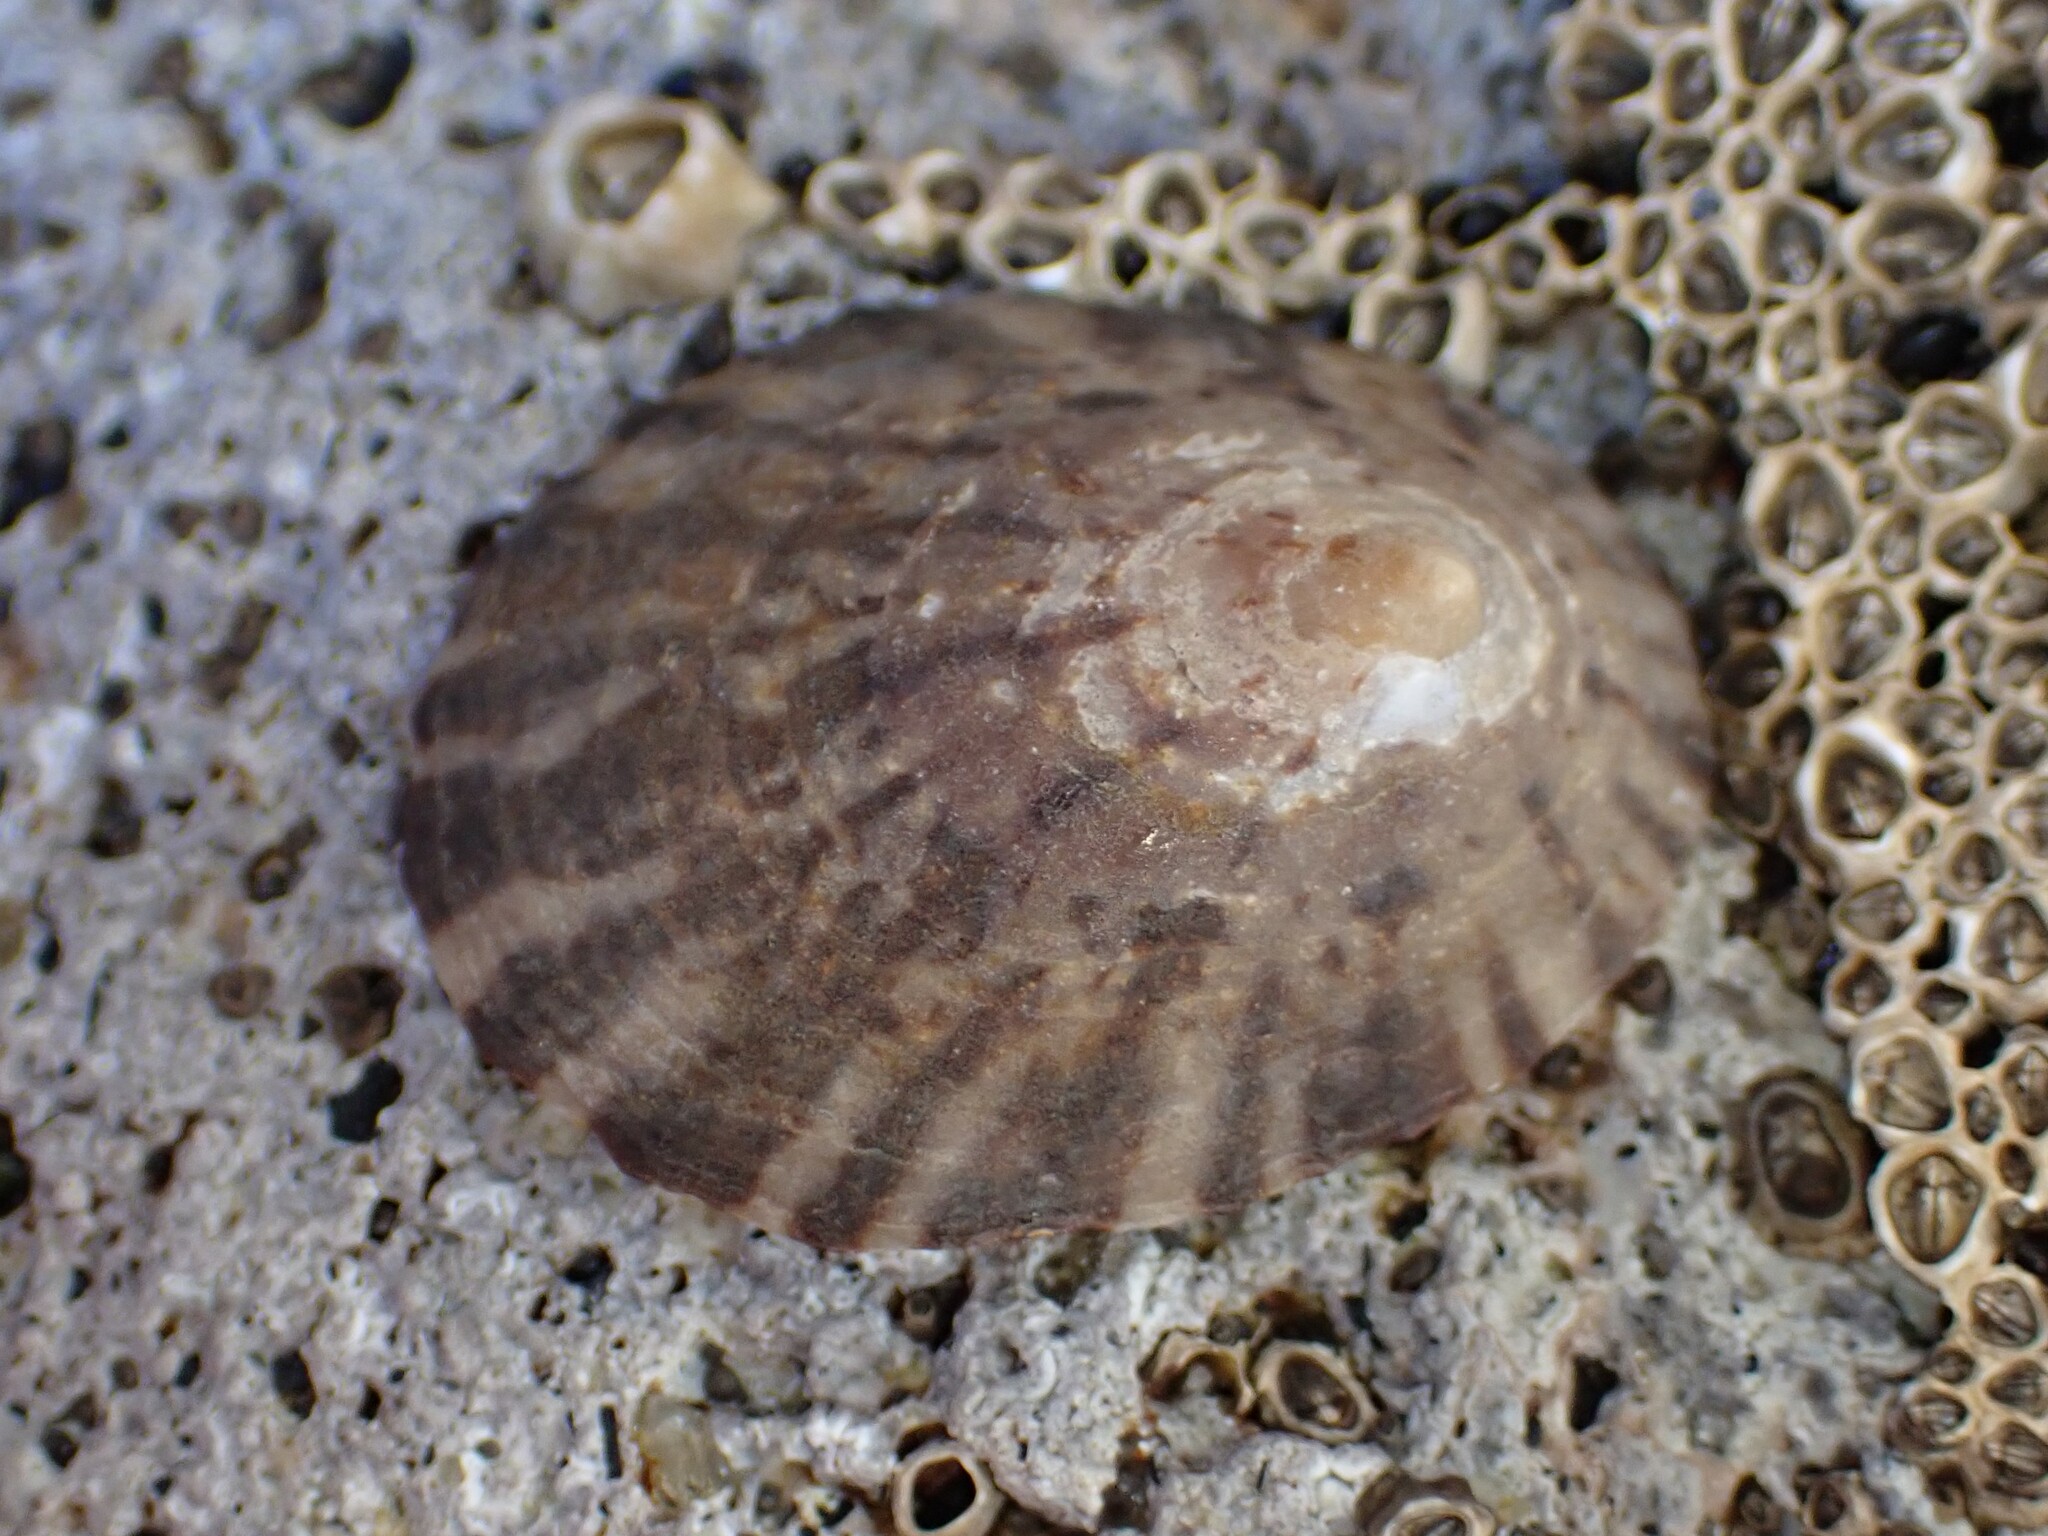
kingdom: Animalia
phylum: Mollusca
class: Gastropoda
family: Nacellidae
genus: Cellana
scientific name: Cellana radians
